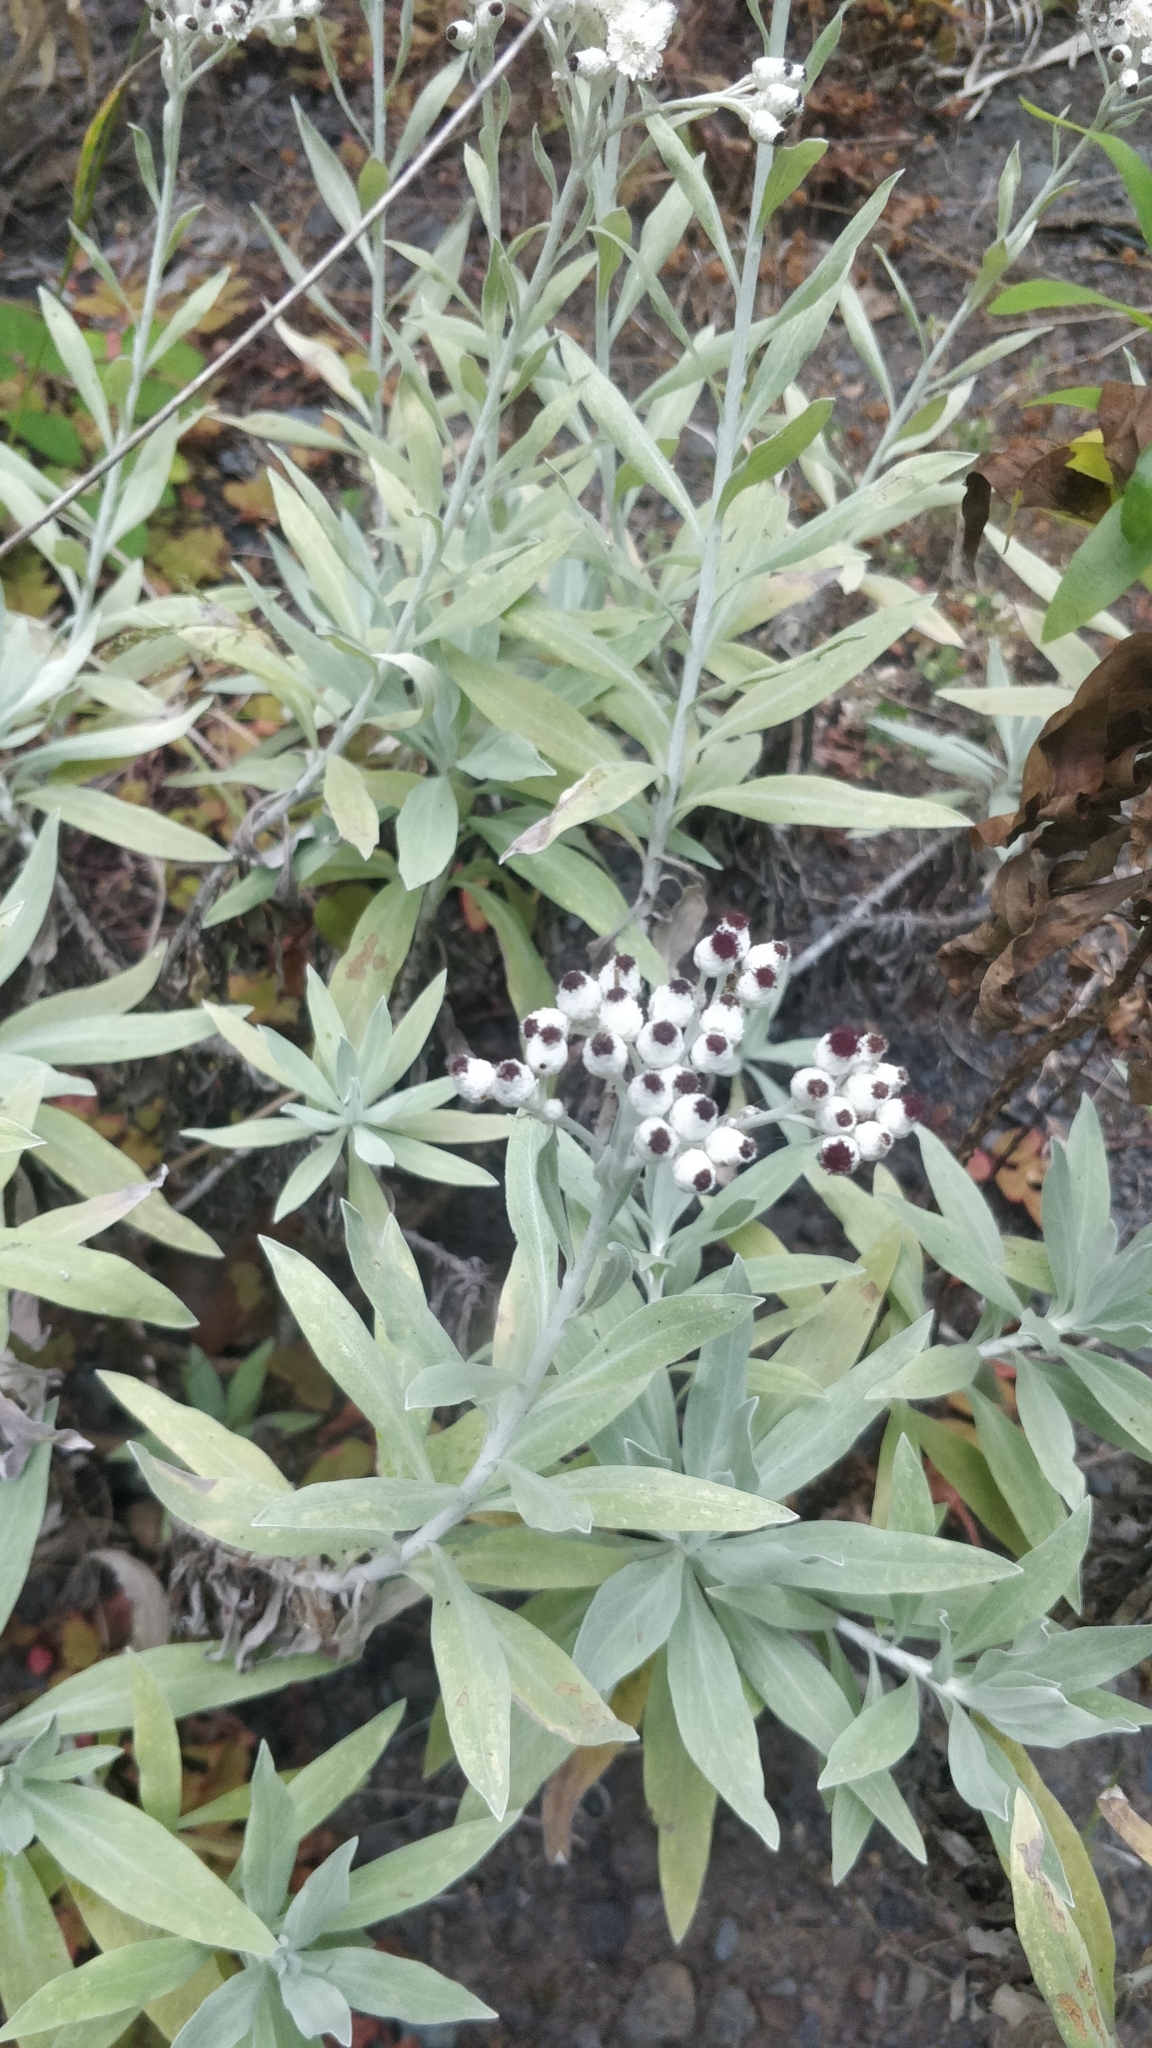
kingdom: Plantae
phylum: Tracheophyta
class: Magnoliopsida
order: Asterales
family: Asteraceae
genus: Helichrysum
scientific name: Helichrysum melaleucum
